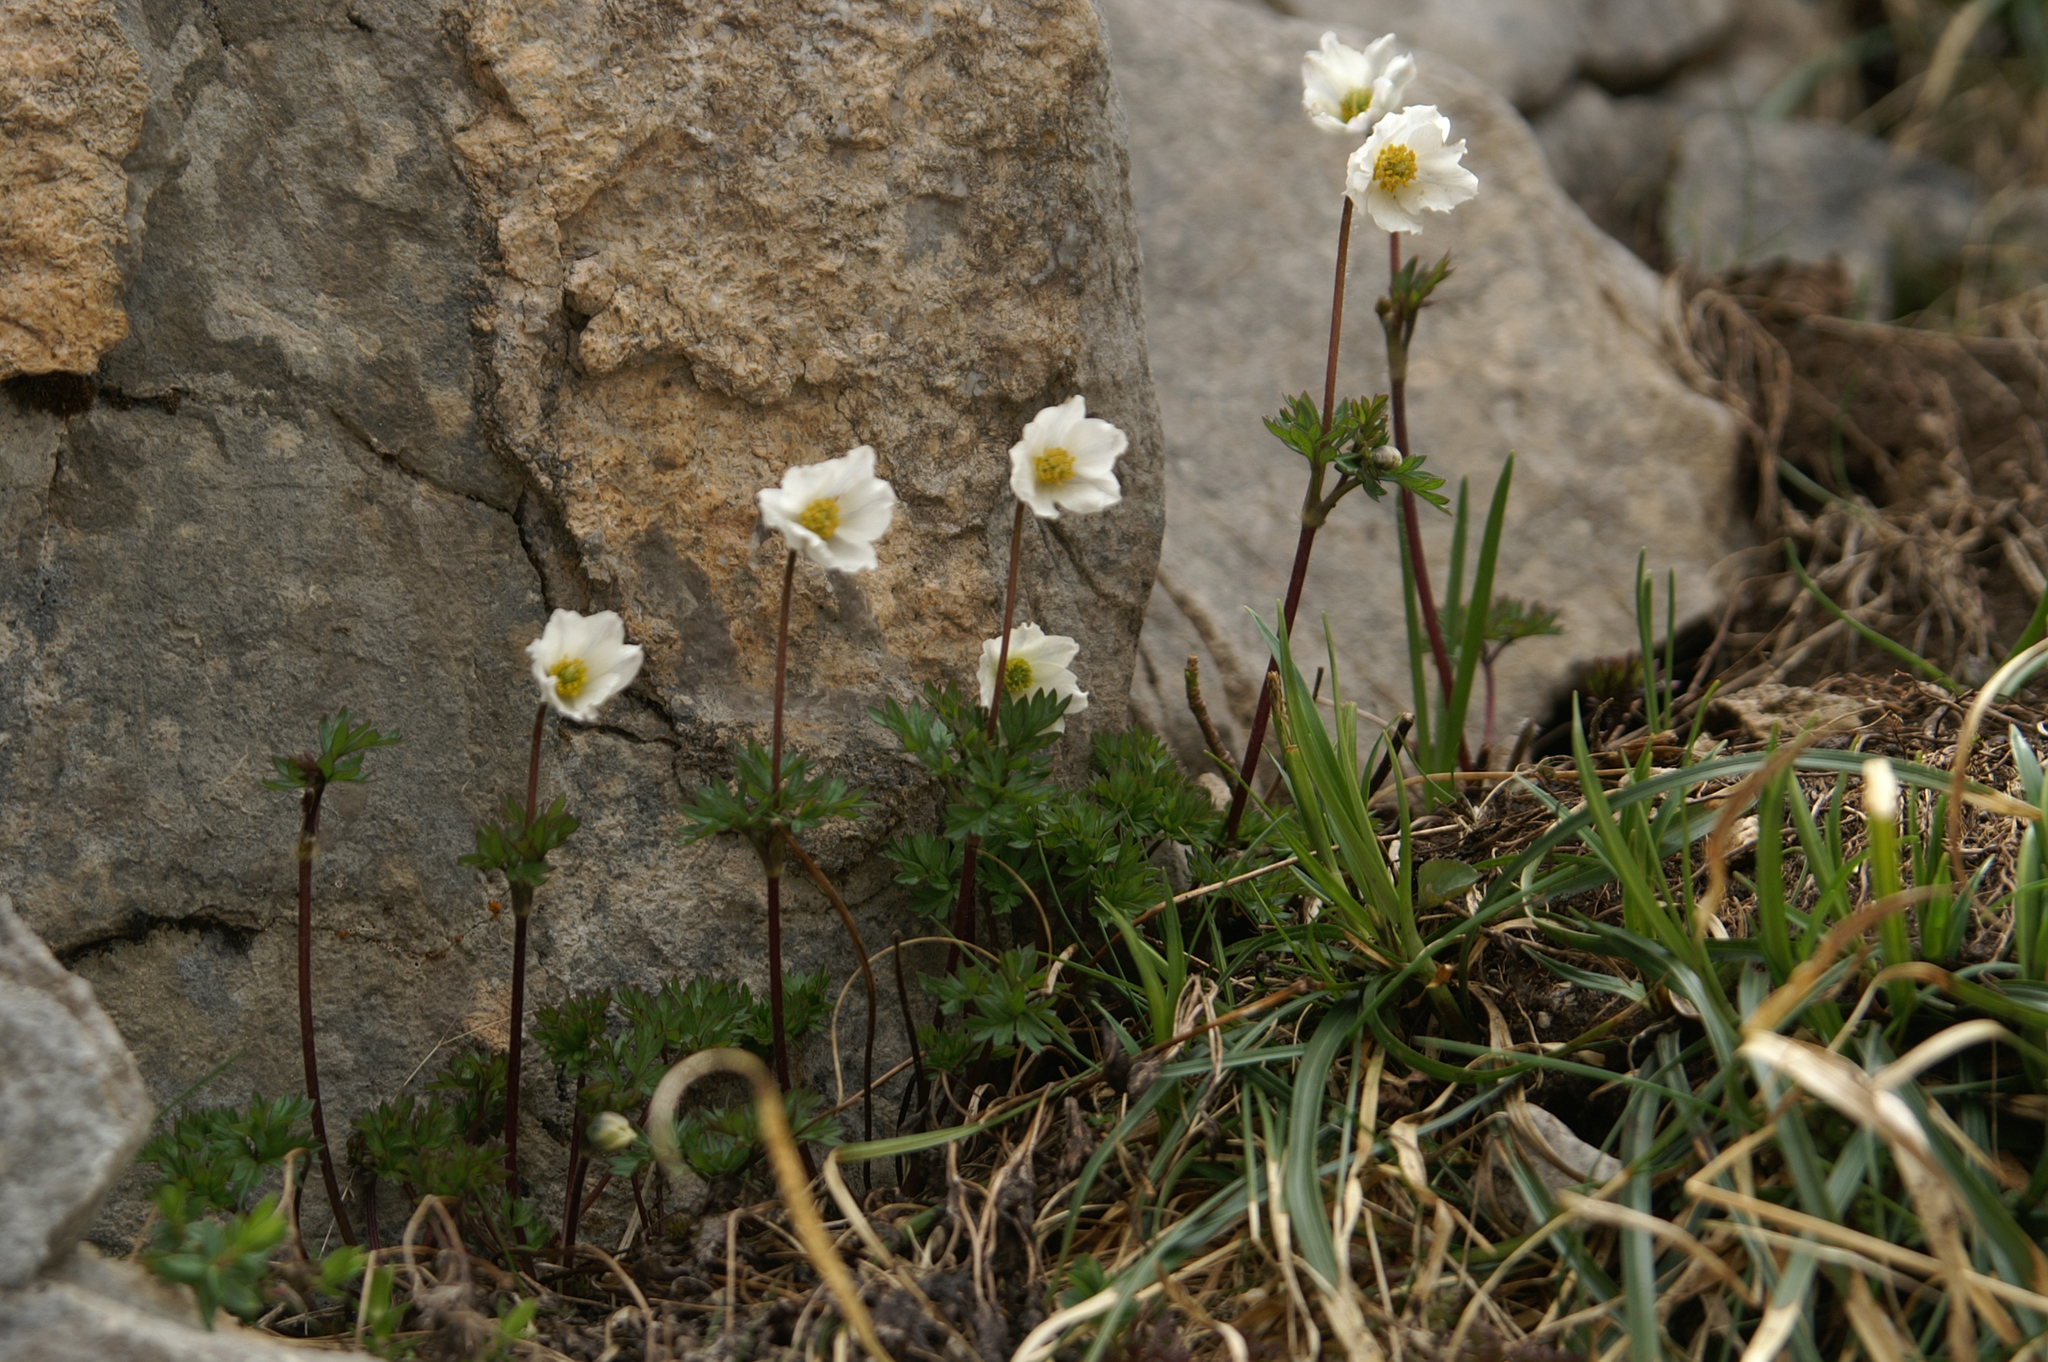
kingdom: Plantae
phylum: Tracheophyta
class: Magnoliopsida
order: Ranunculales
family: Ranunculaceae
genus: Anemone
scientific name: Anemone baldensis
